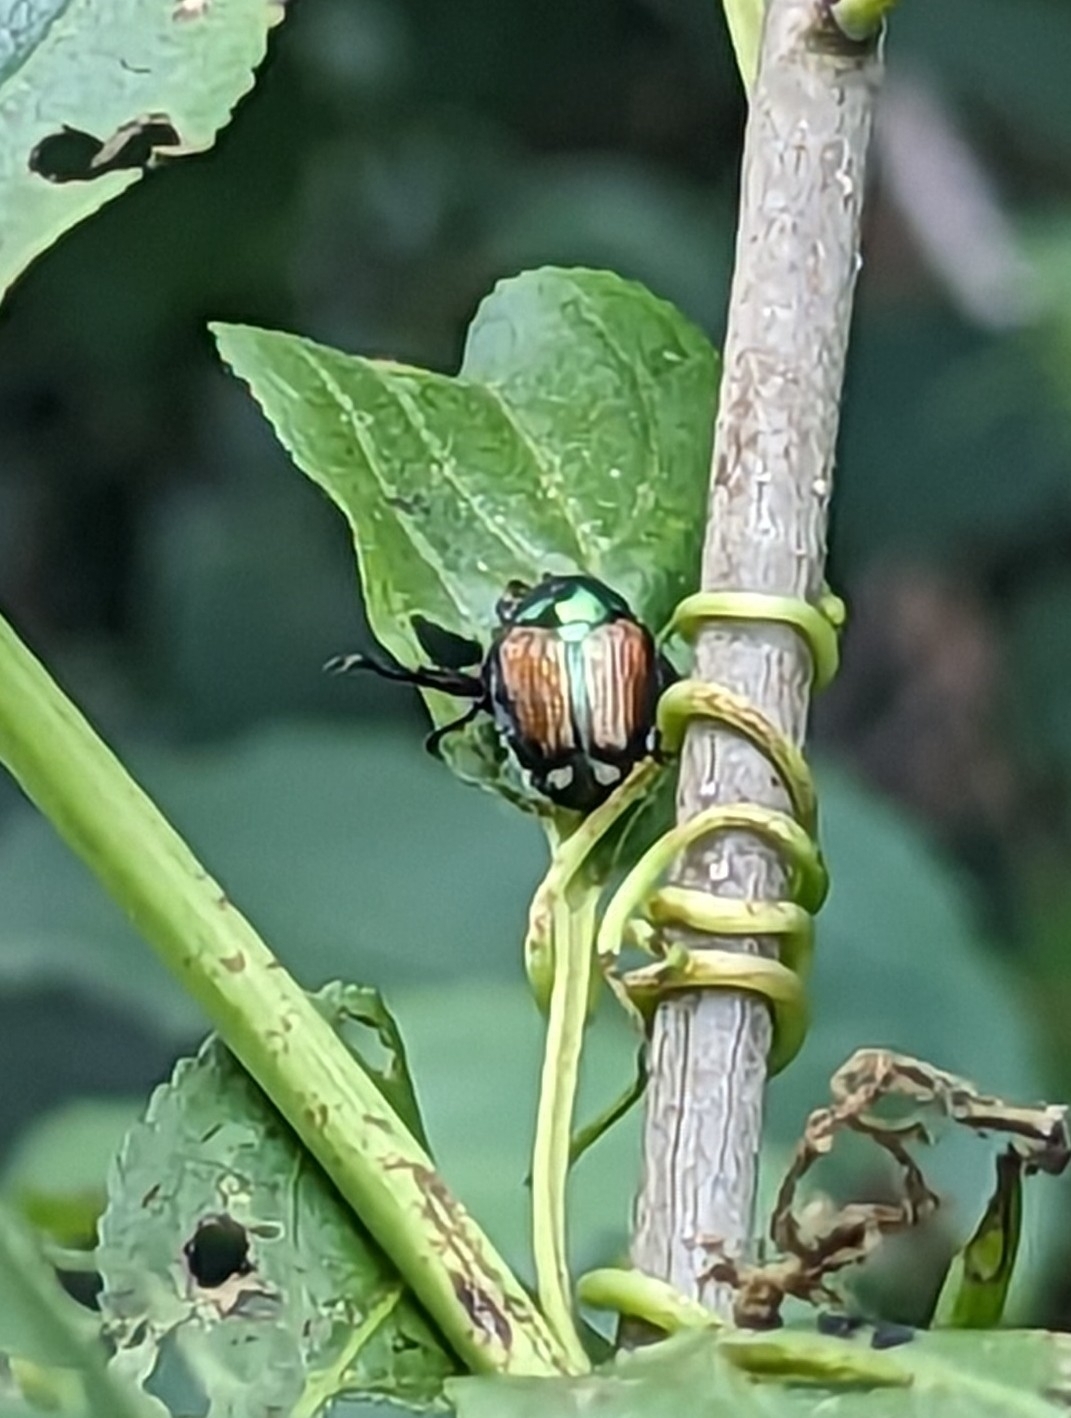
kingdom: Animalia
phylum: Arthropoda
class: Insecta
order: Coleoptera
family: Scarabaeidae
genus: Popillia
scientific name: Popillia japonica
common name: Japanese beetle
